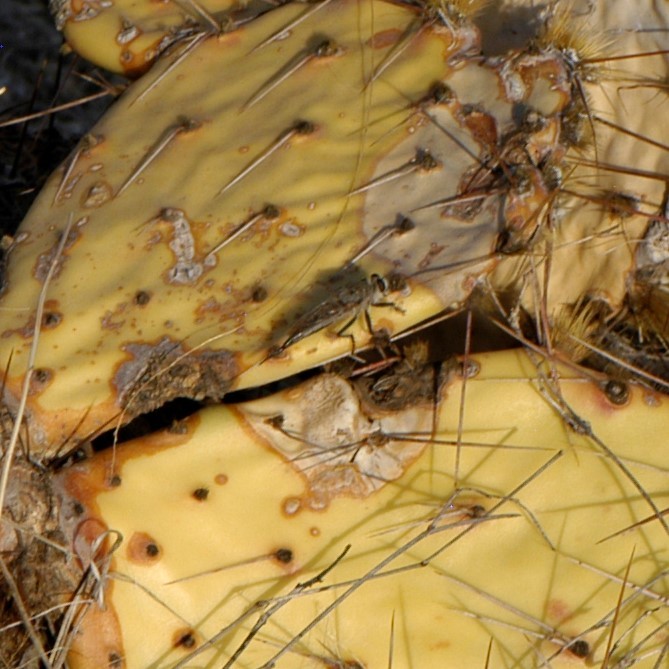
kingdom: Animalia
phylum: Arthropoda
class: Insecta
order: Diptera
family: Asilidae
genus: Efferia
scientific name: Efferia
